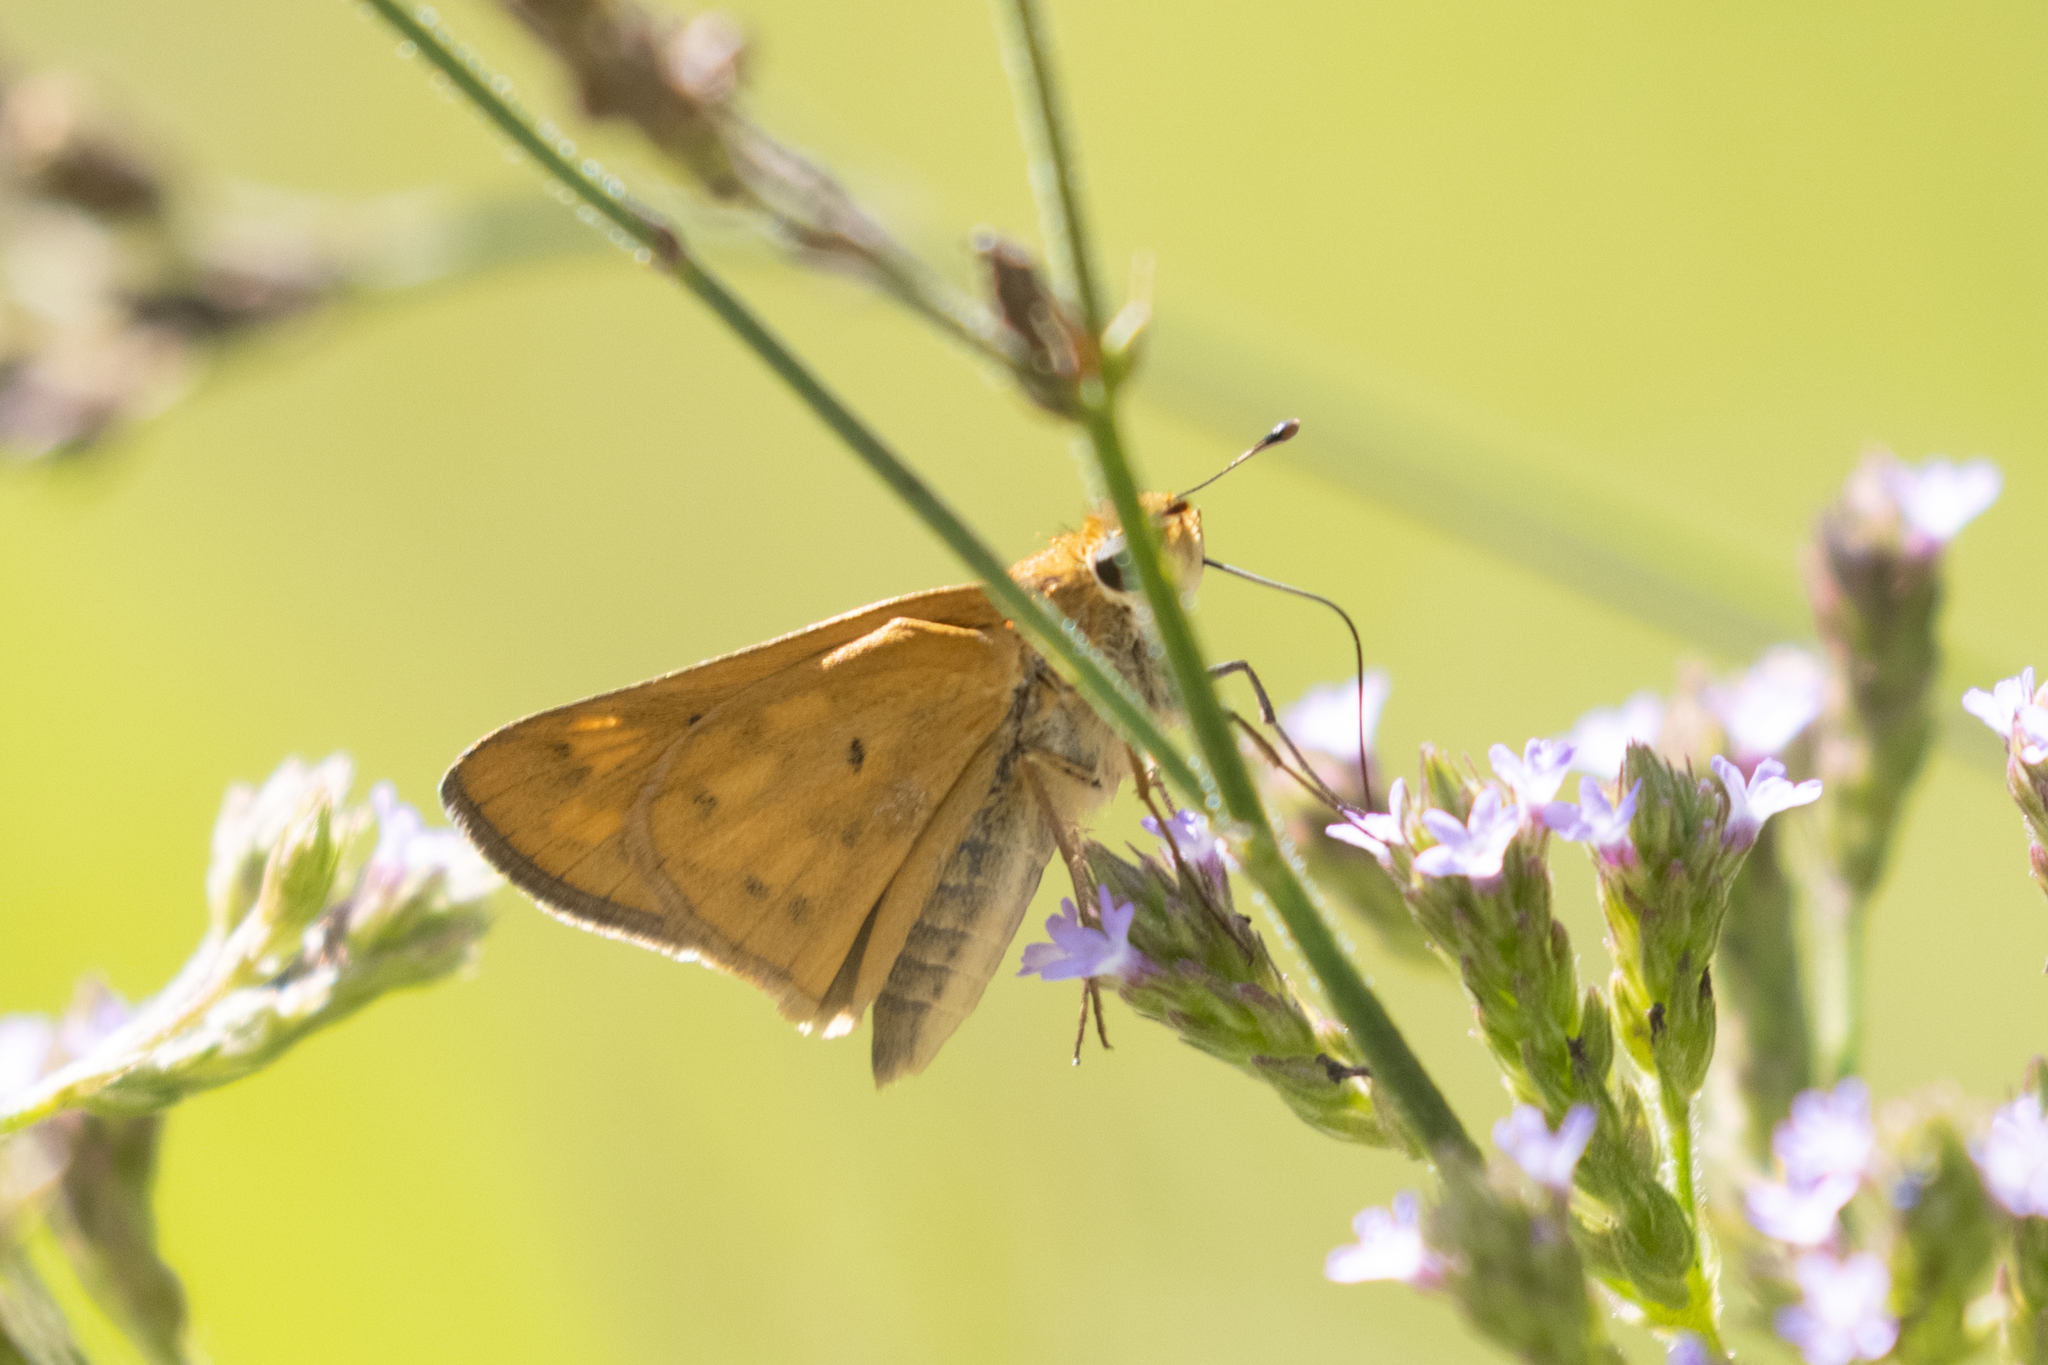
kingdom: Animalia
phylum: Arthropoda
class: Insecta
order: Lepidoptera
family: Hesperiidae
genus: Hylephila
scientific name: Hylephila phyleus
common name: Fiery skipper
